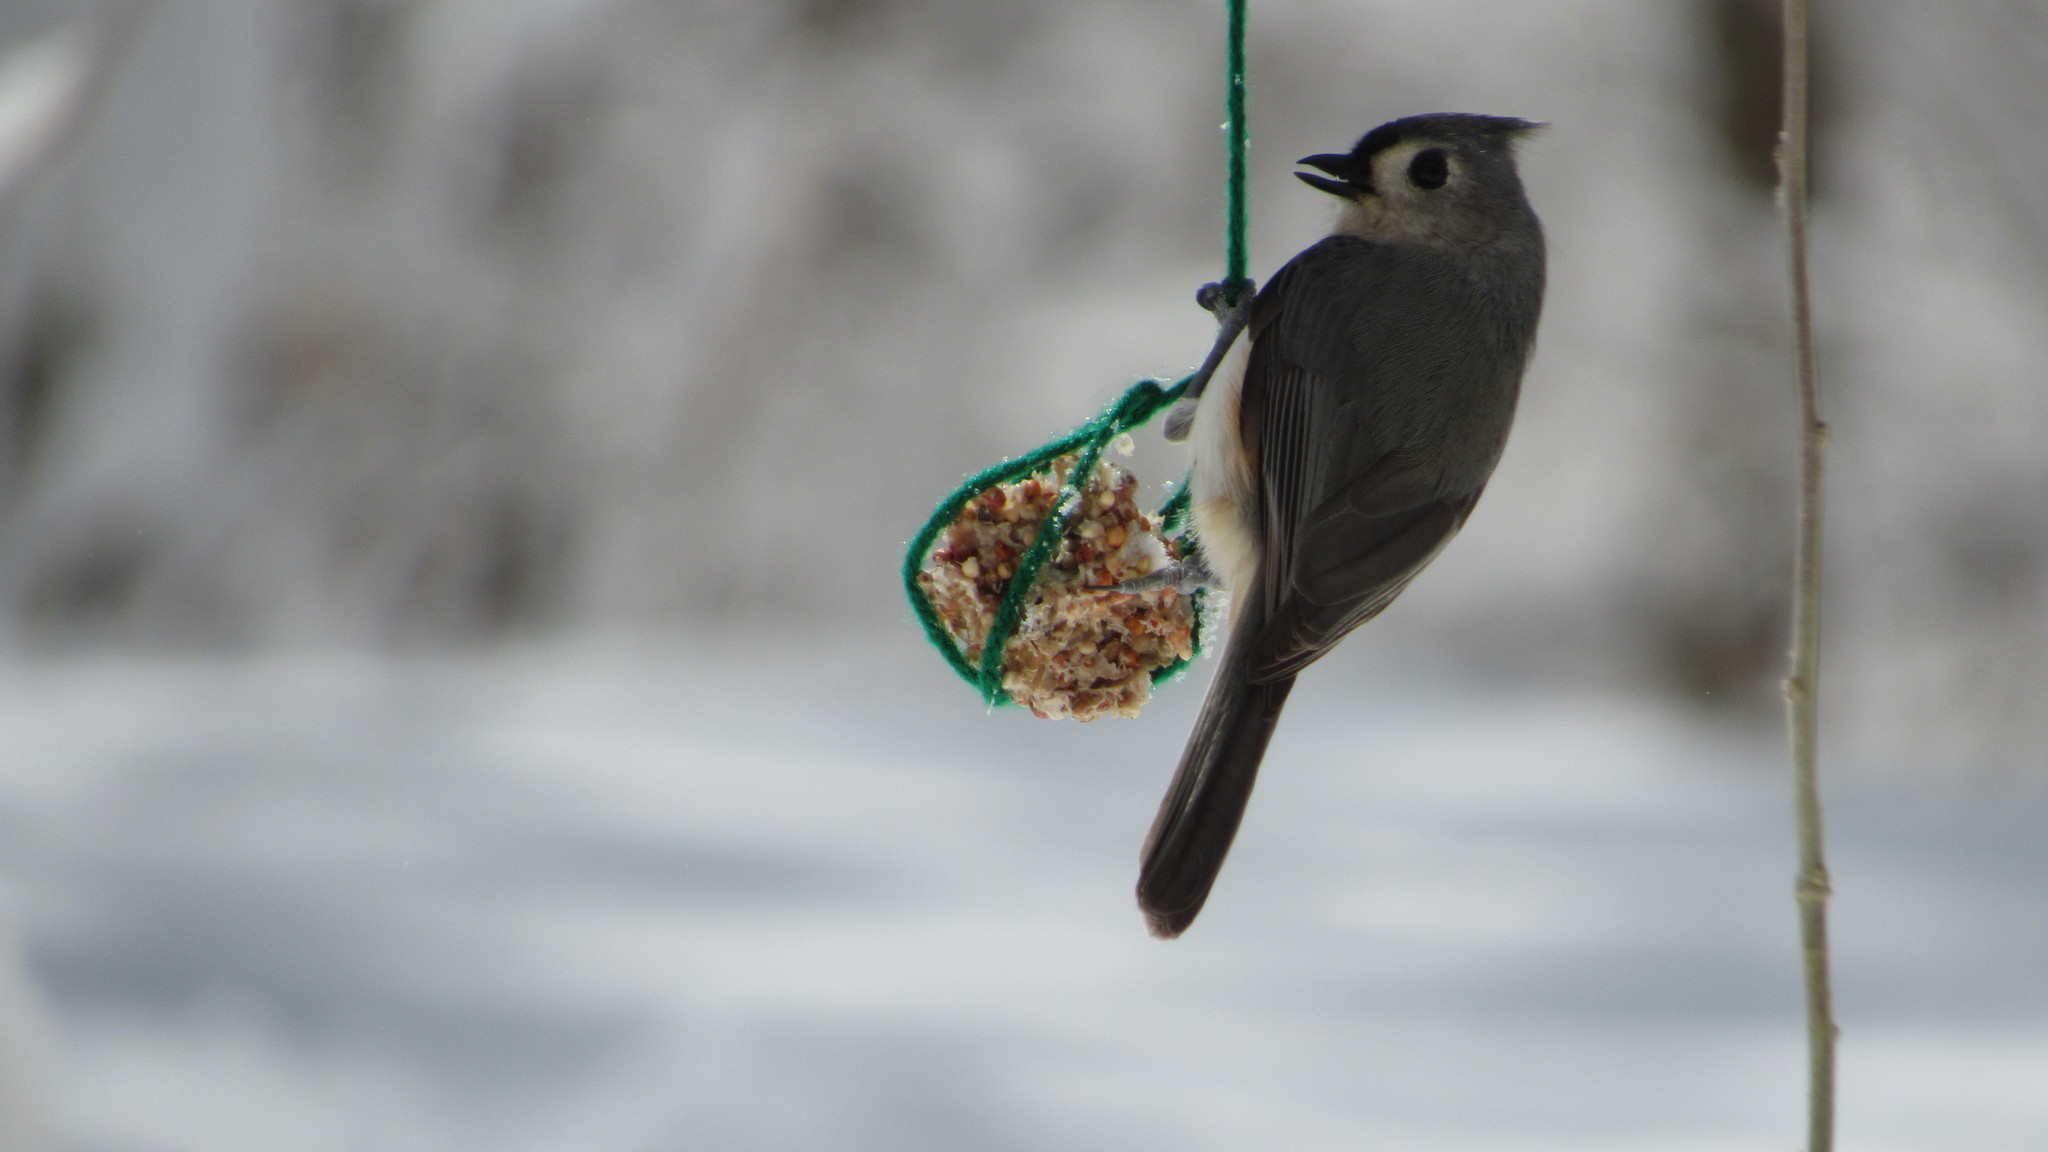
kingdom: Animalia
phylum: Chordata
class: Aves
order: Passeriformes
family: Paridae
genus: Baeolophus
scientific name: Baeolophus bicolor
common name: Tufted titmouse
